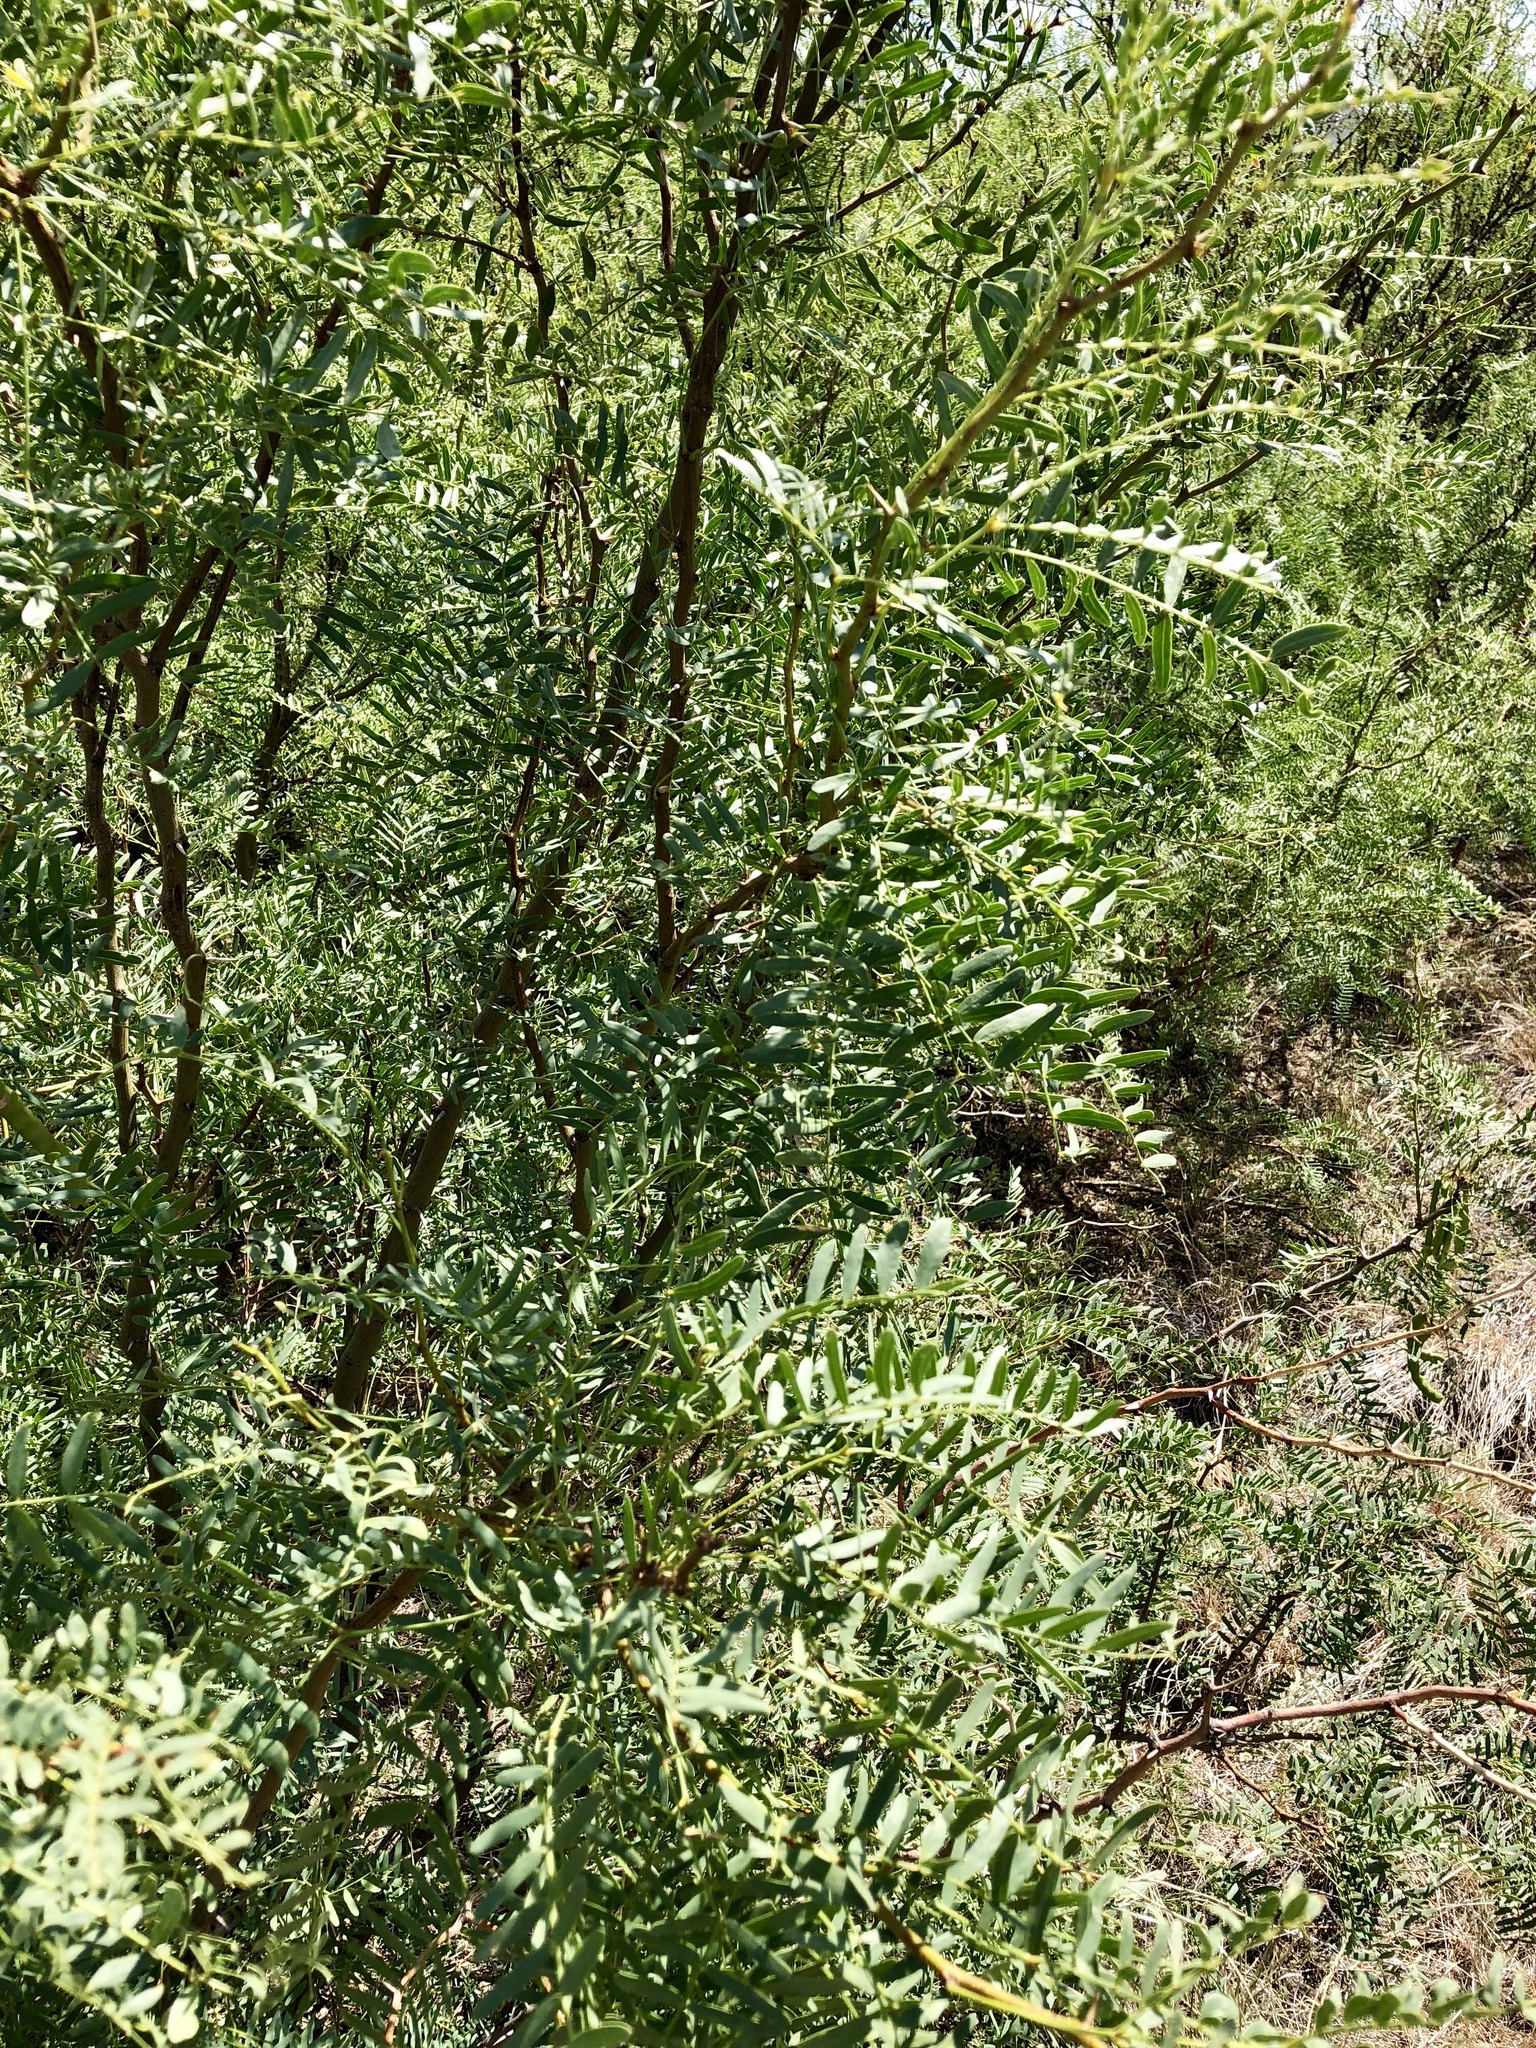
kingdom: Plantae
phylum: Tracheophyta
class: Magnoliopsida
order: Fabales
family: Fabaceae
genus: Prosopis
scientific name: Prosopis glandulosa
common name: Honey mesquite
